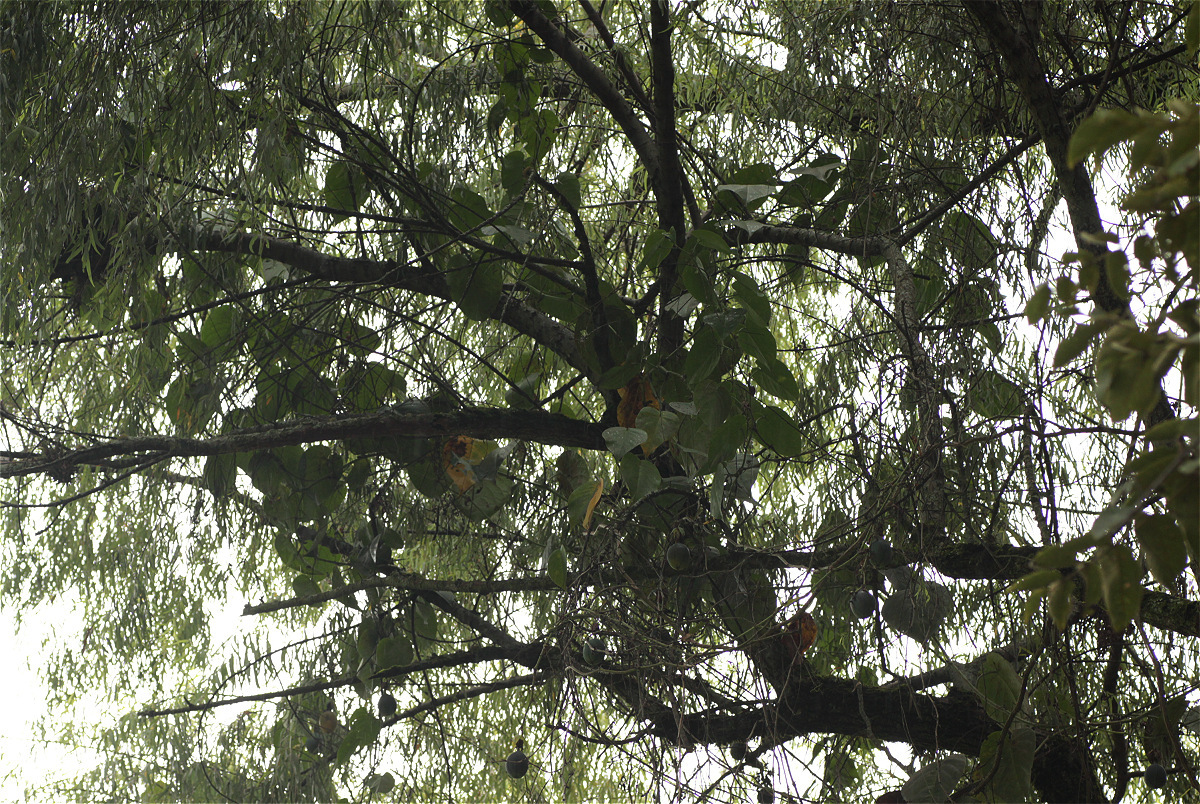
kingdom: Plantae
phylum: Tracheophyta
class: Magnoliopsida
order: Malpighiales
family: Passifloraceae
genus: Passiflora
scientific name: Passiflora ligularis
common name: Sweet granadilla
